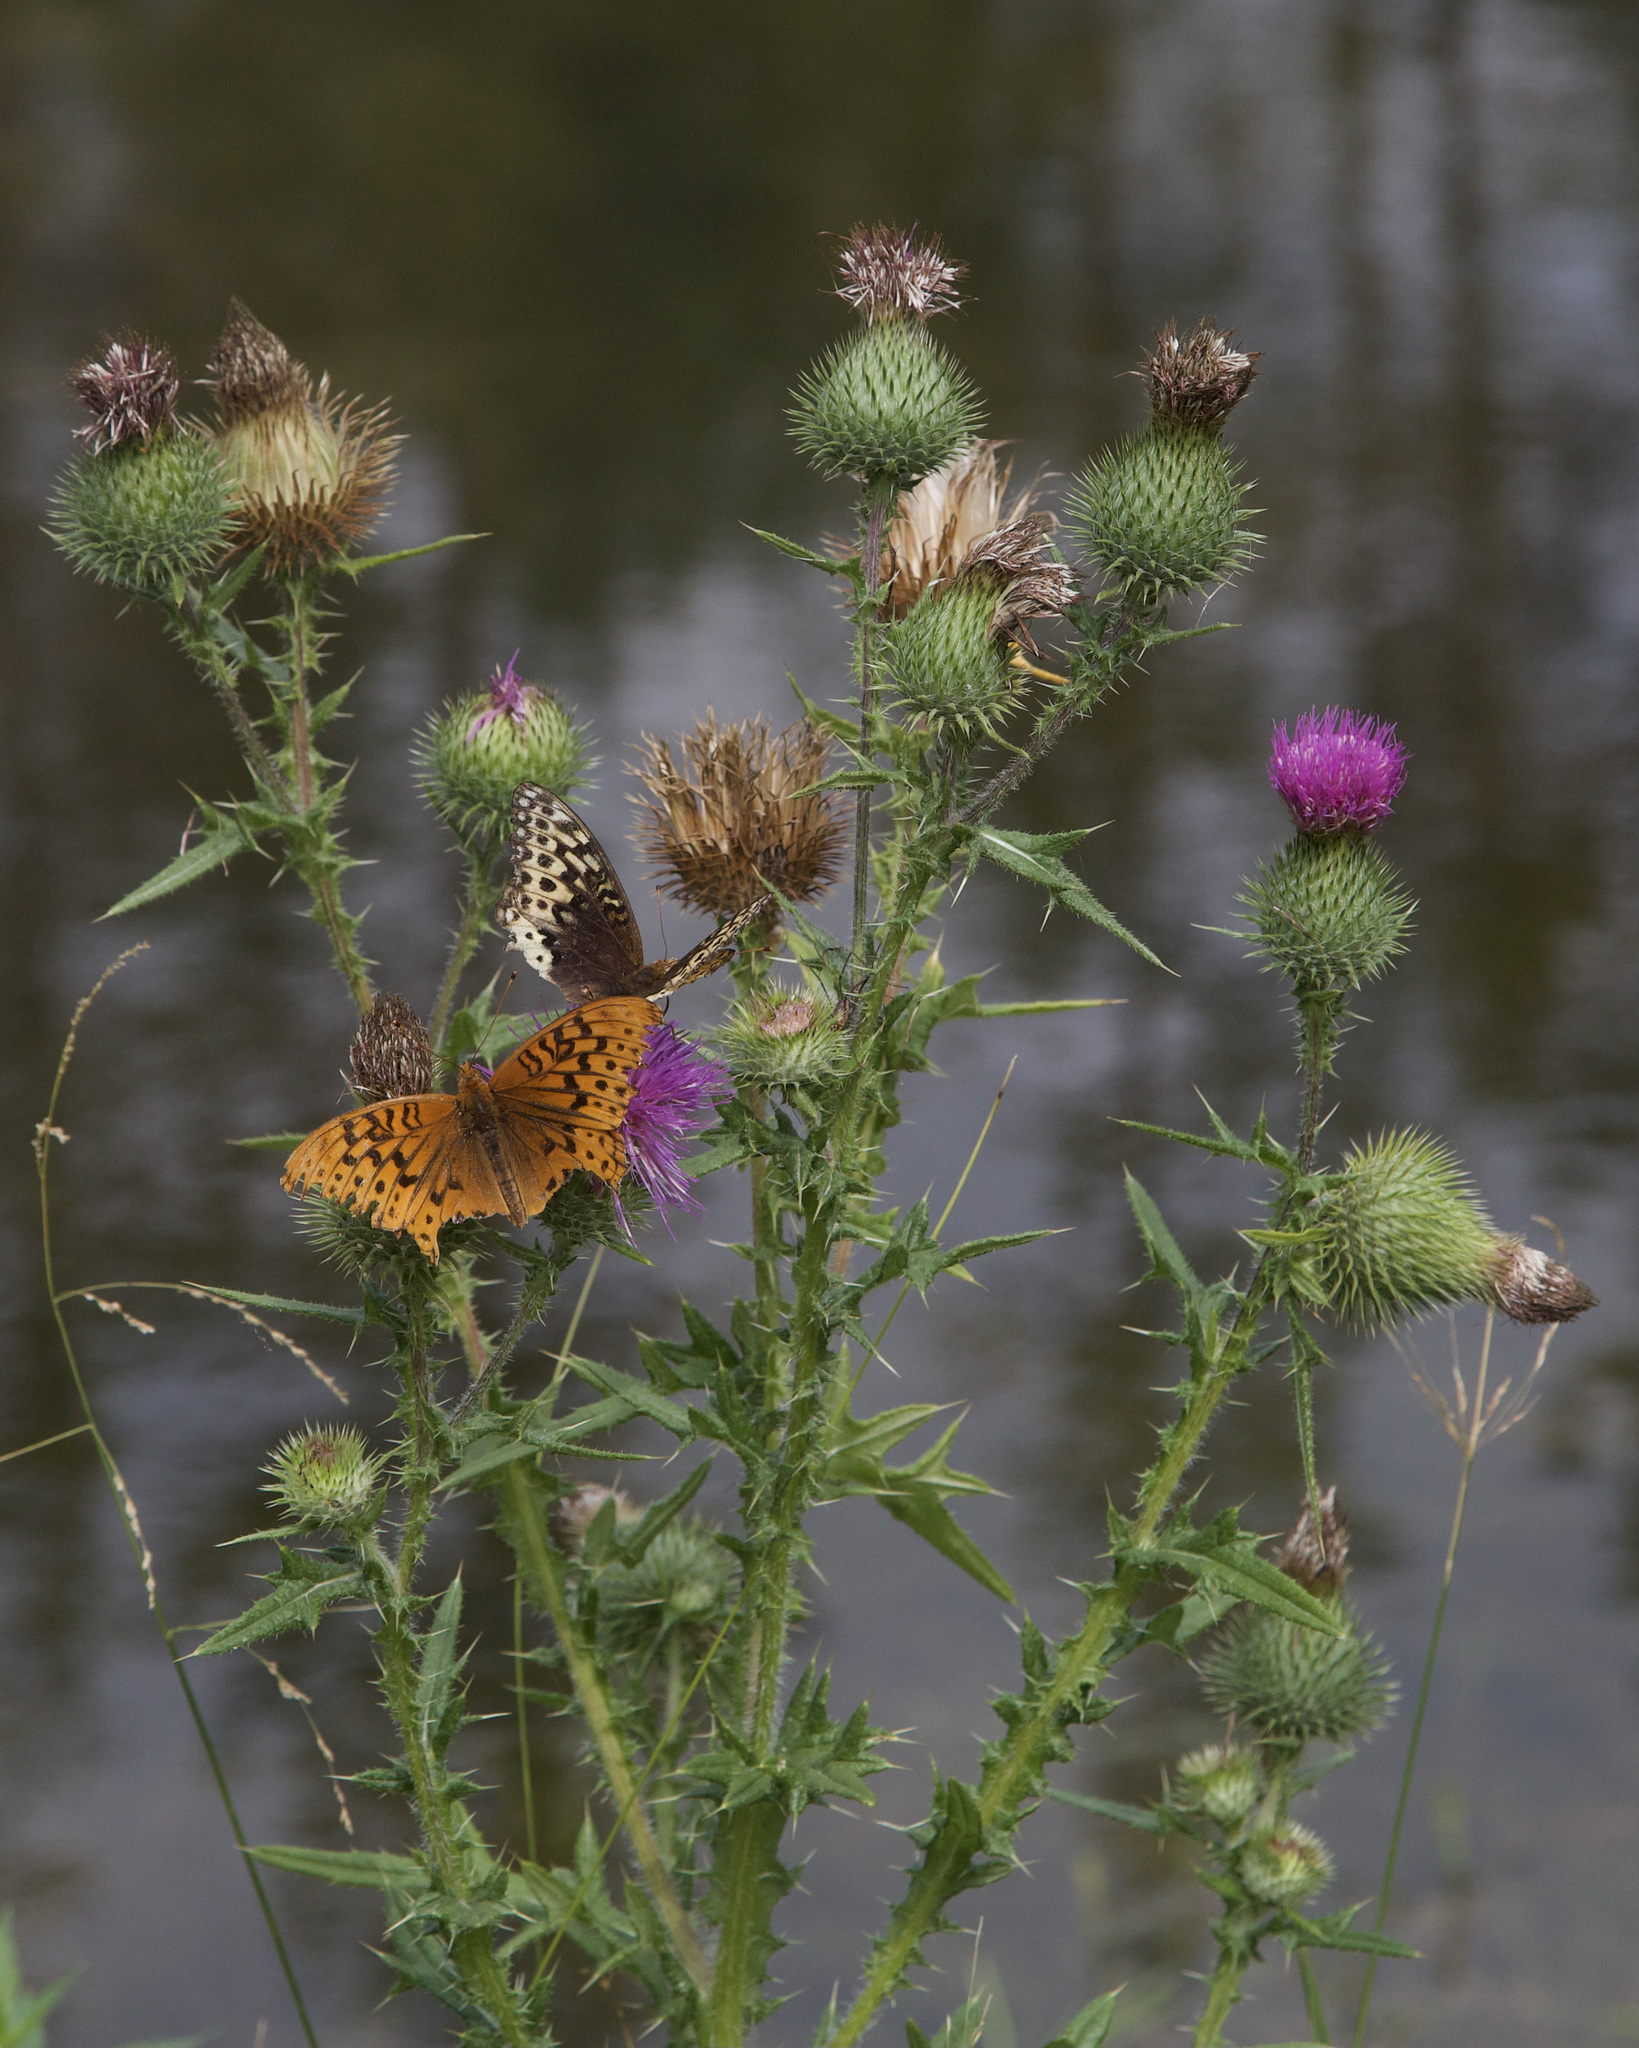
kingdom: Animalia
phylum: Arthropoda
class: Insecta
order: Lepidoptera
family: Nymphalidae
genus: Speyeria
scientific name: Speyeria cybele
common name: Great spangled fritillary
